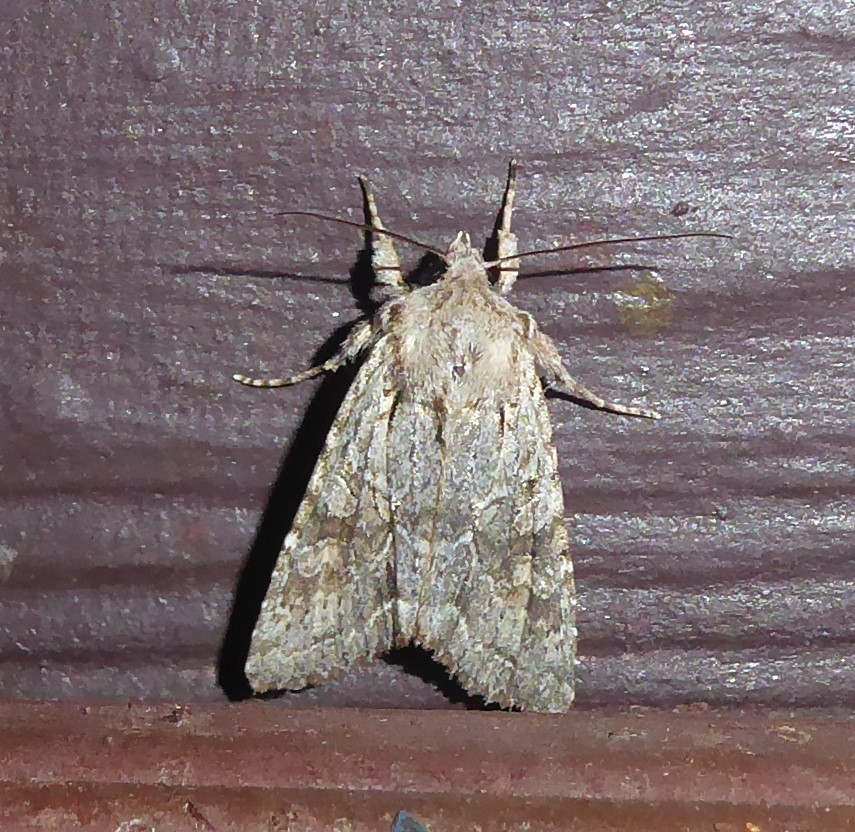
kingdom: Animalia
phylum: Arthropoda
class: Insecta
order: Lepidoptera
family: Noctuidae
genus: Ichneutica
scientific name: Ichneutica mutans
